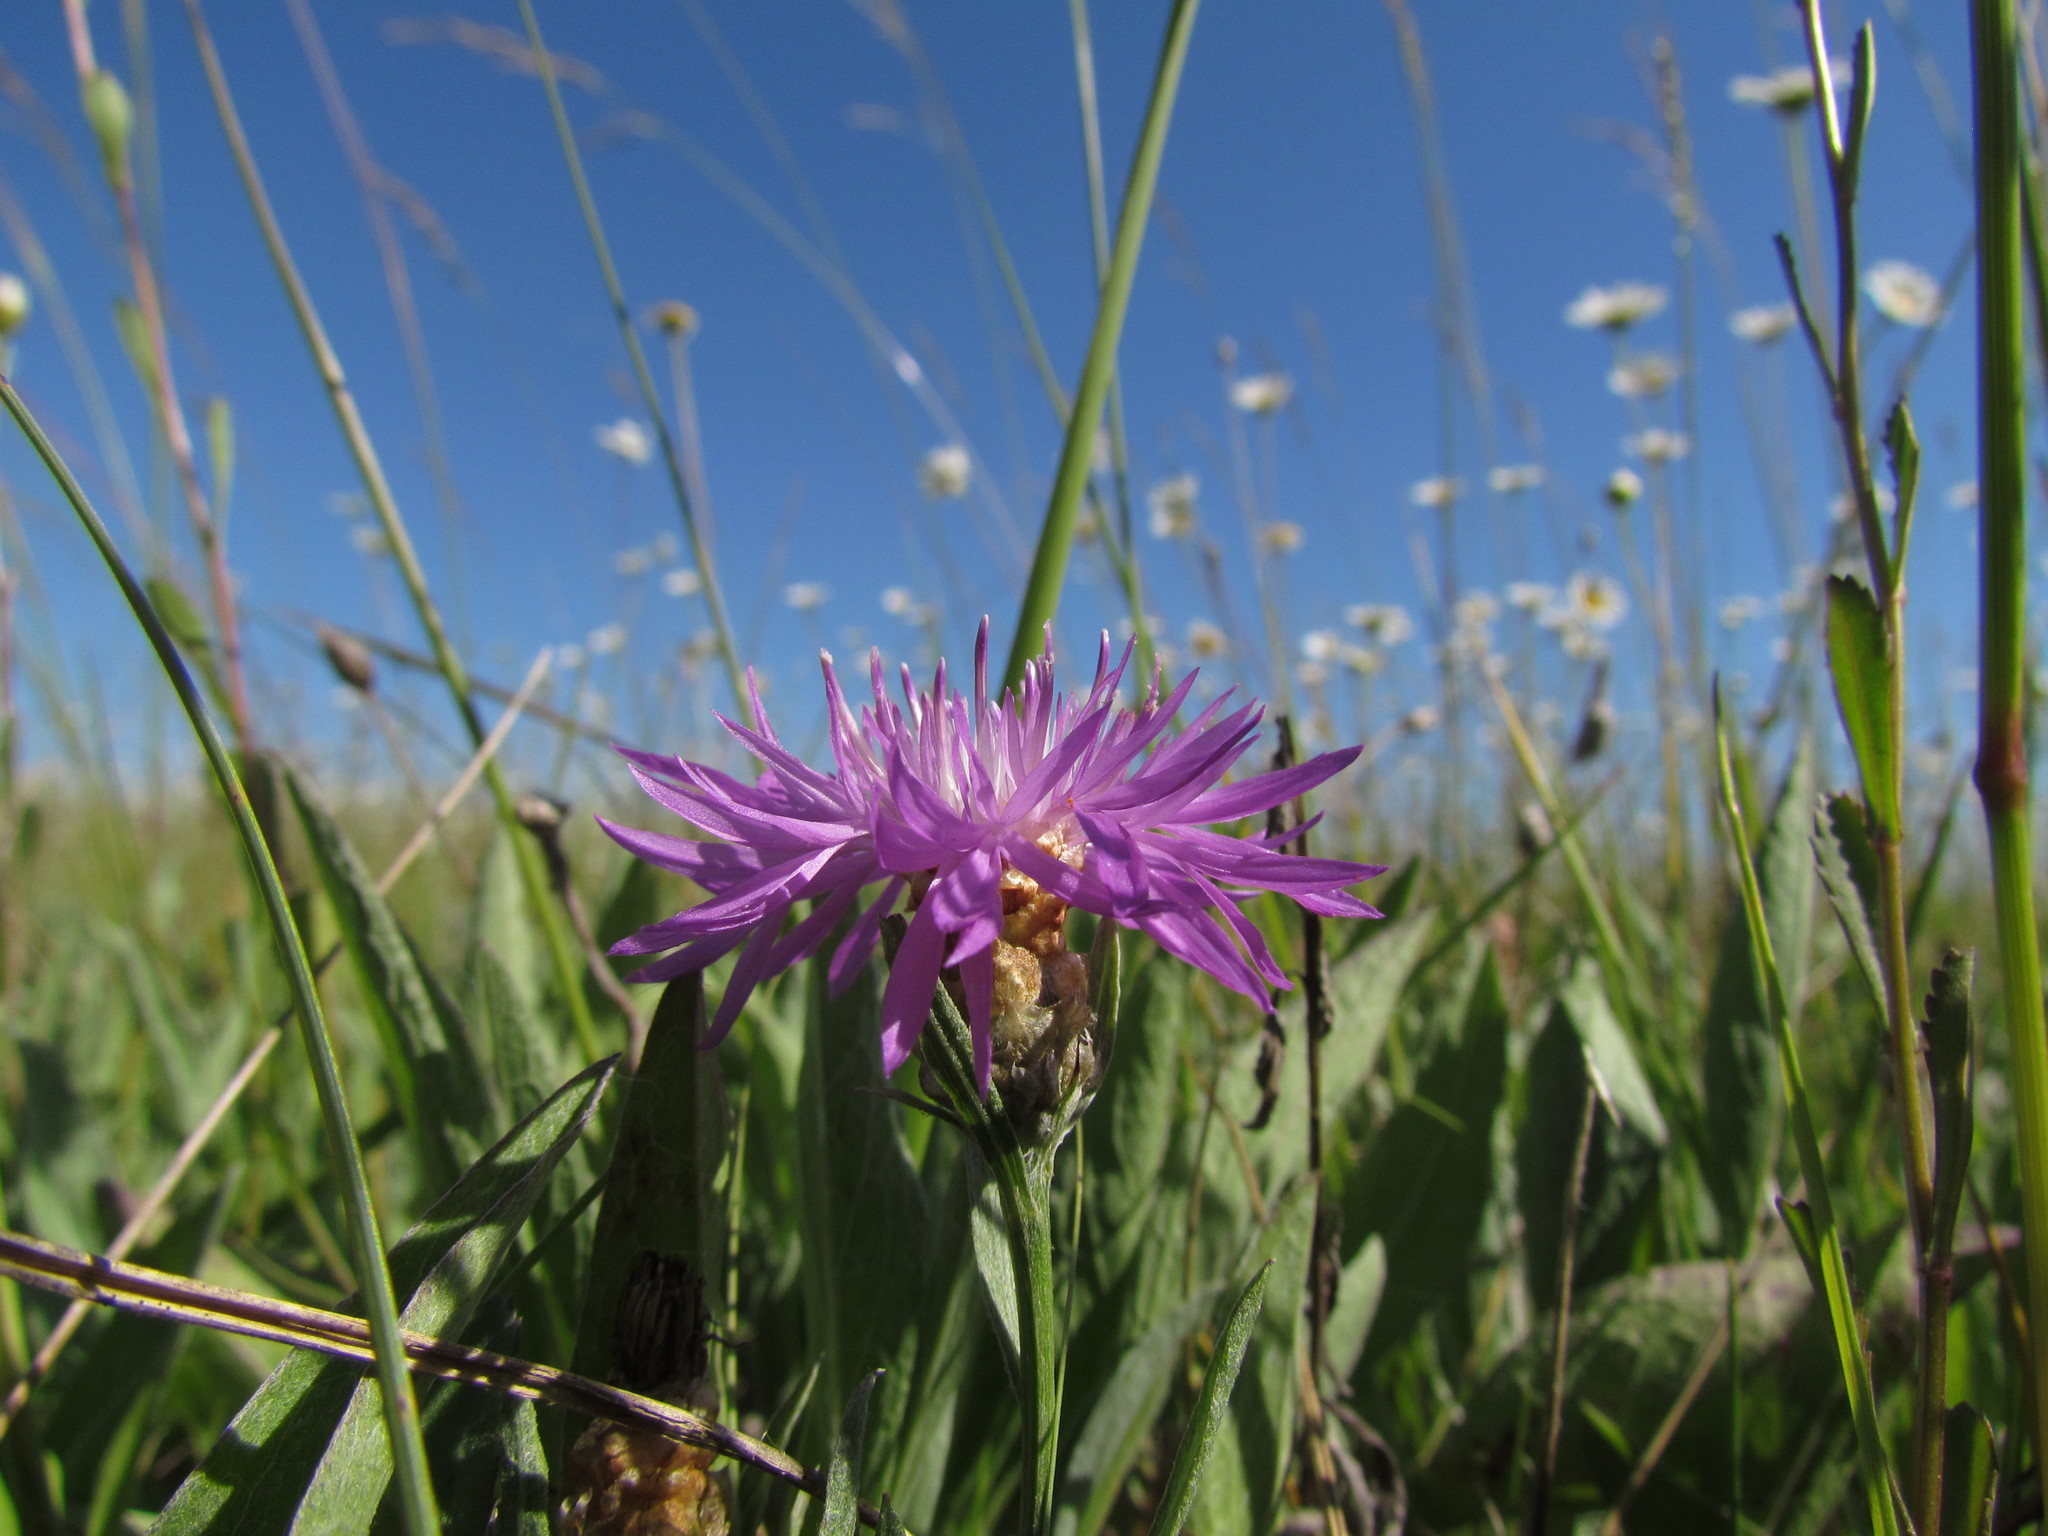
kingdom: Plantae
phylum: Tracheophyta
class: Magnoliopsida
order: Asterales
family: Asteraceae
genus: Centaurea
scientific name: Centaurea jacea
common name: Brown knapweed
